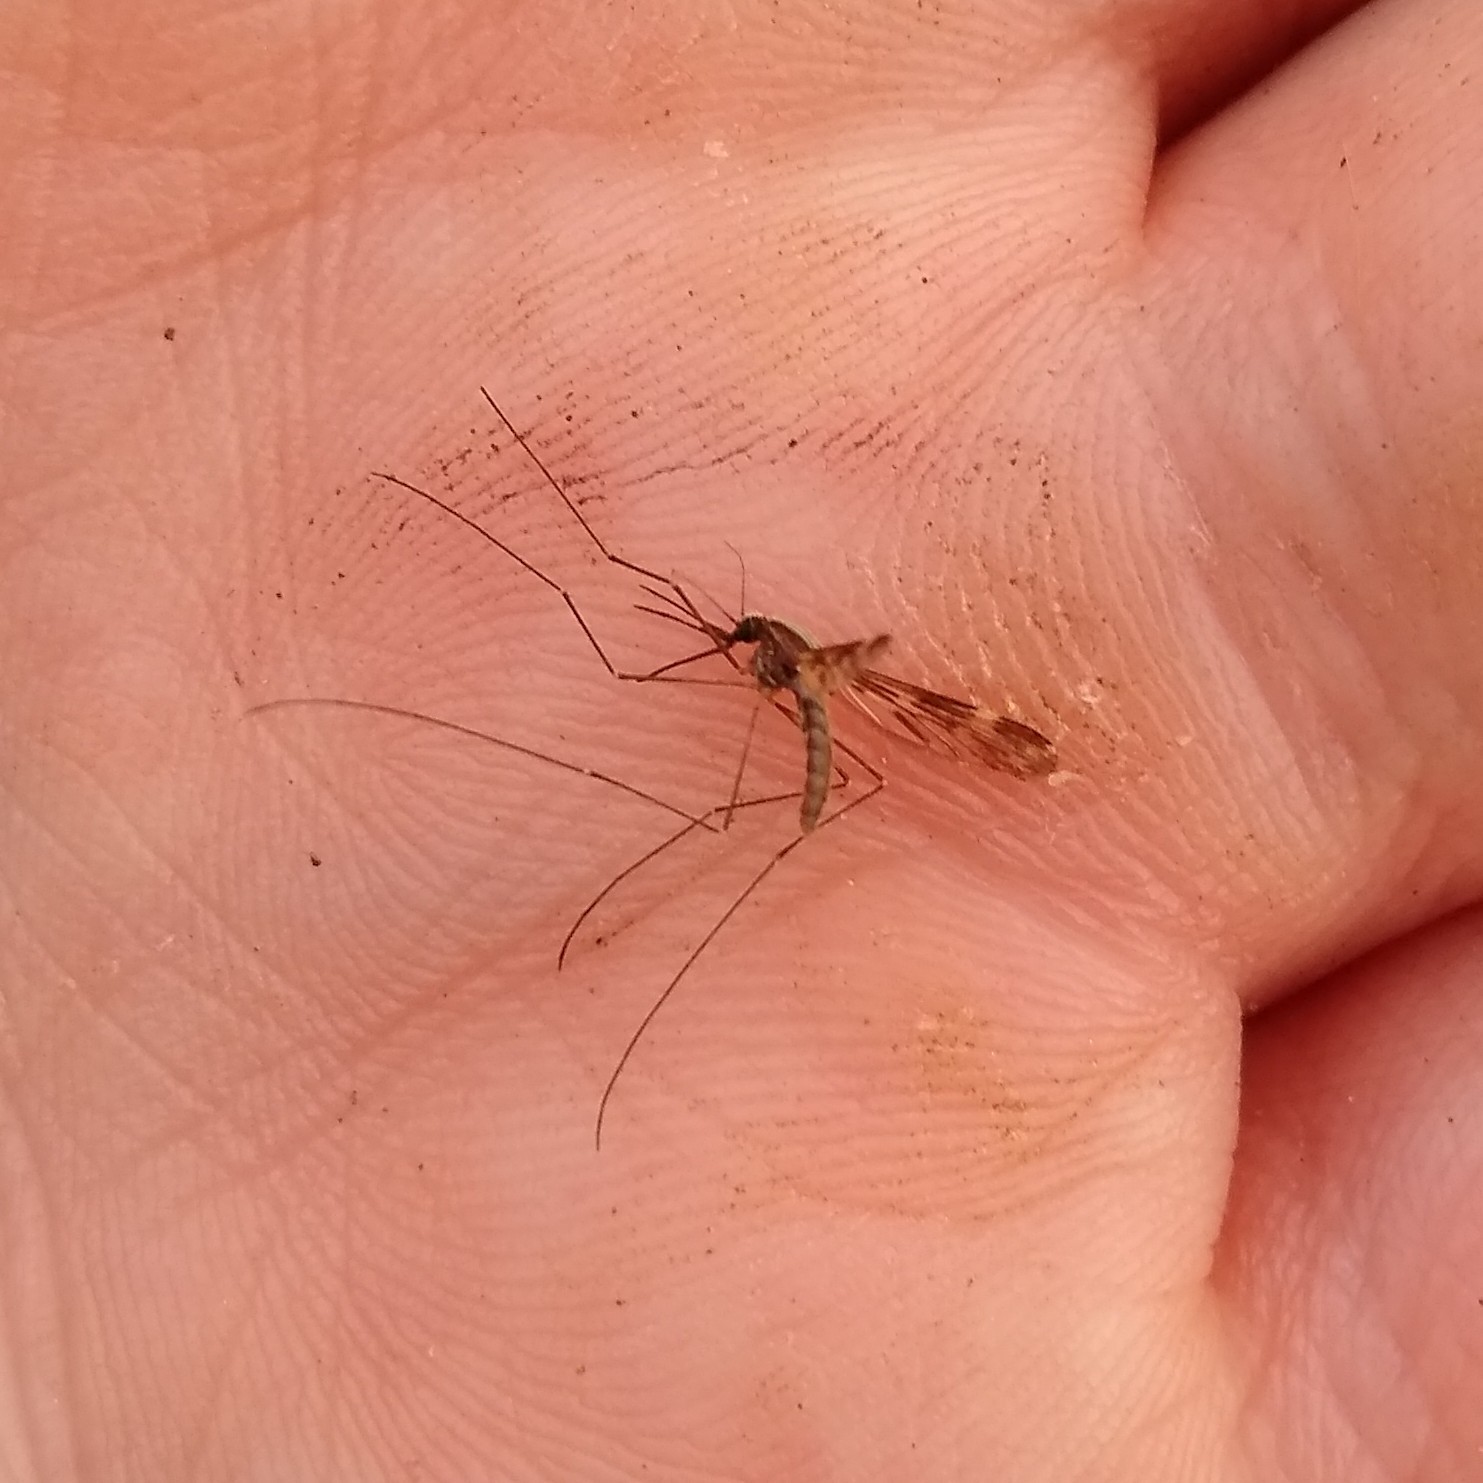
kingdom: Animalia
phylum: Arthropoda
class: Insecta
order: Diptera
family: Culicidae
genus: Anopheles
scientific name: Anopheles punctipennis
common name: Woodland malaria mosquito
